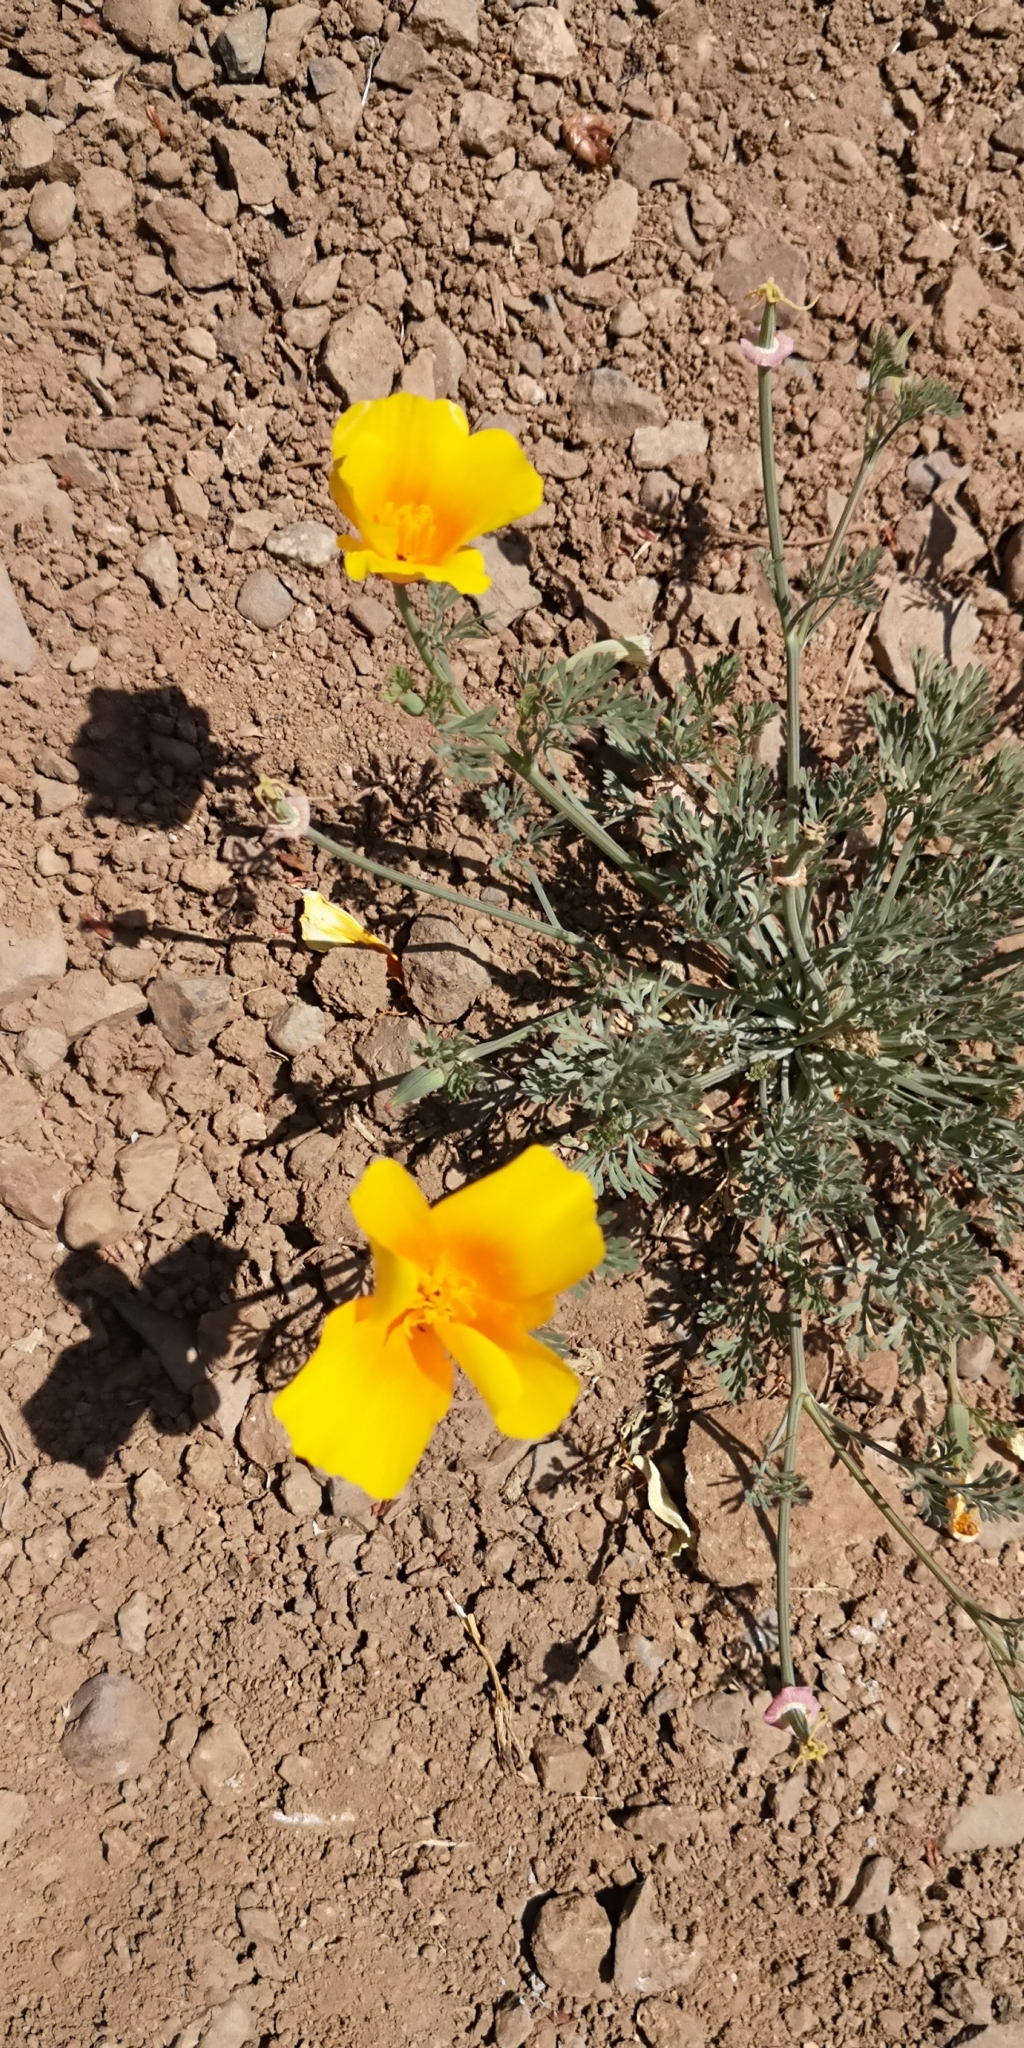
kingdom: Plantae
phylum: Tracheophyta
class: Magnoliopsida
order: Ranunculales
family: Papaveraceae
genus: Eschscholzia
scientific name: Eschscholzia californica
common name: California poppy
